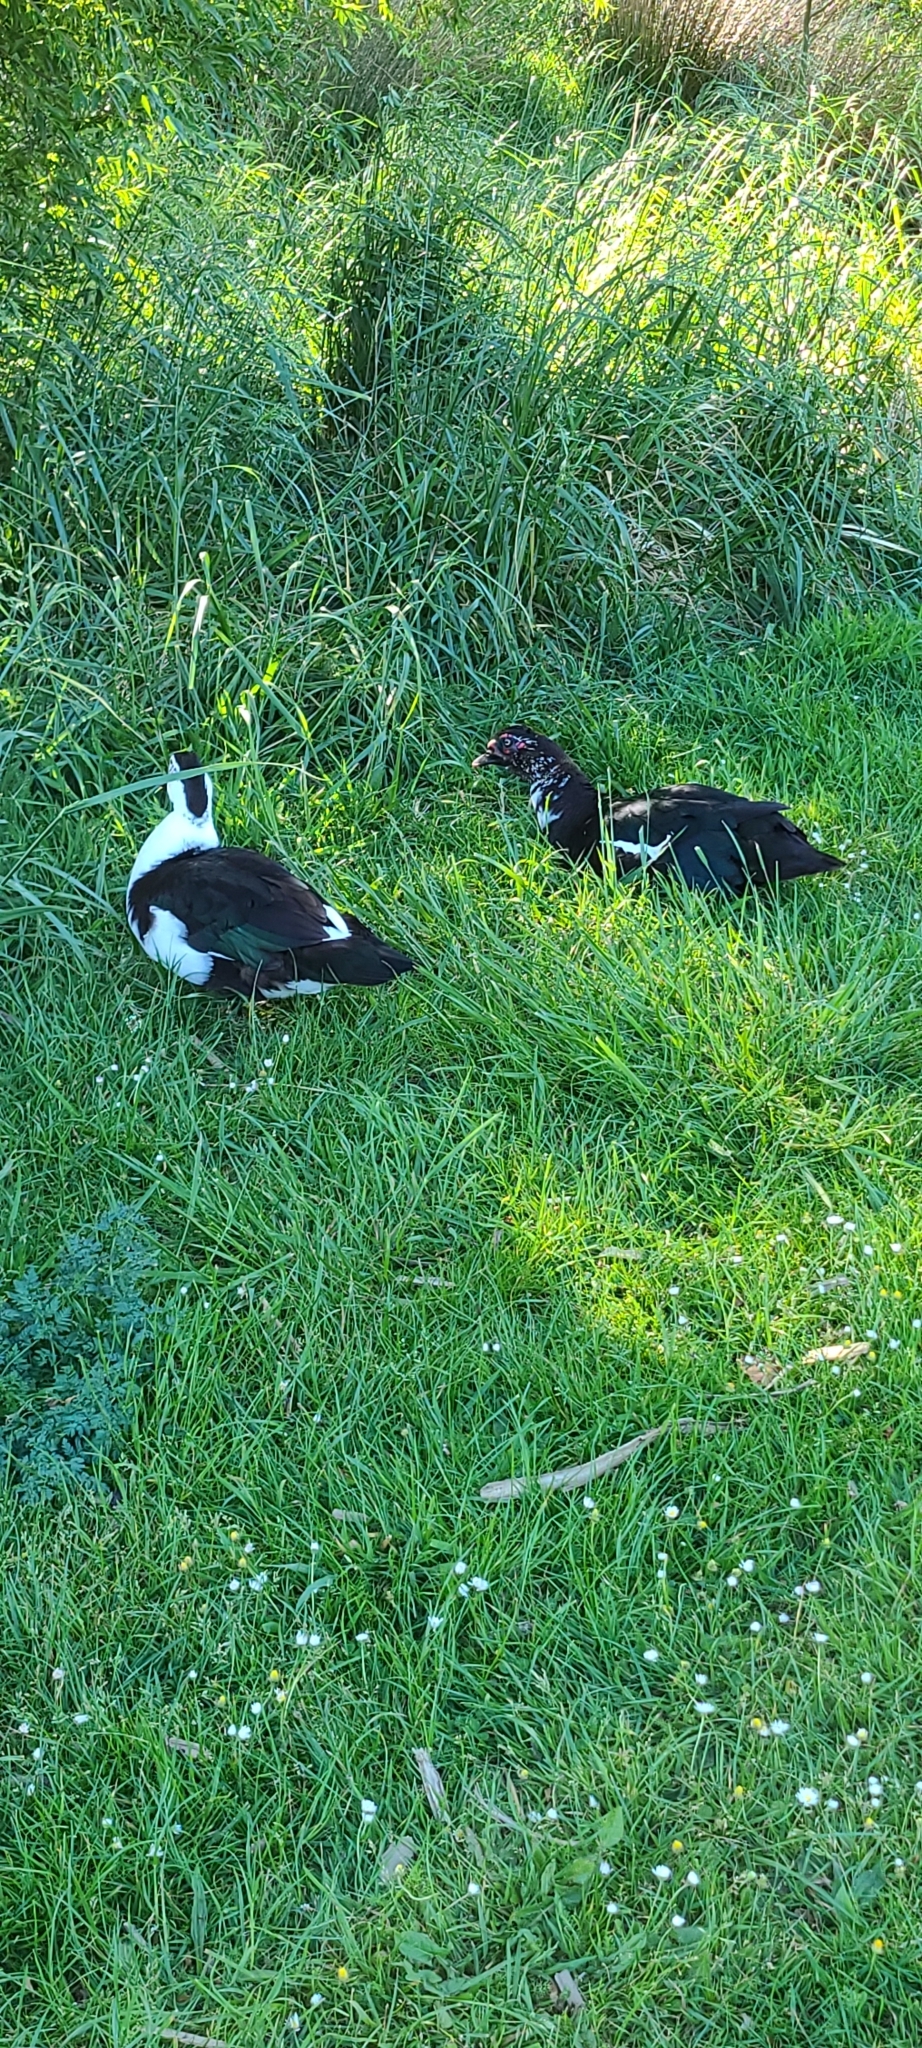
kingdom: Animalia
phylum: Chordata
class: Aves
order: Anseriformes
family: Anatidae
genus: Cairina
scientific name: Cairina moschata
